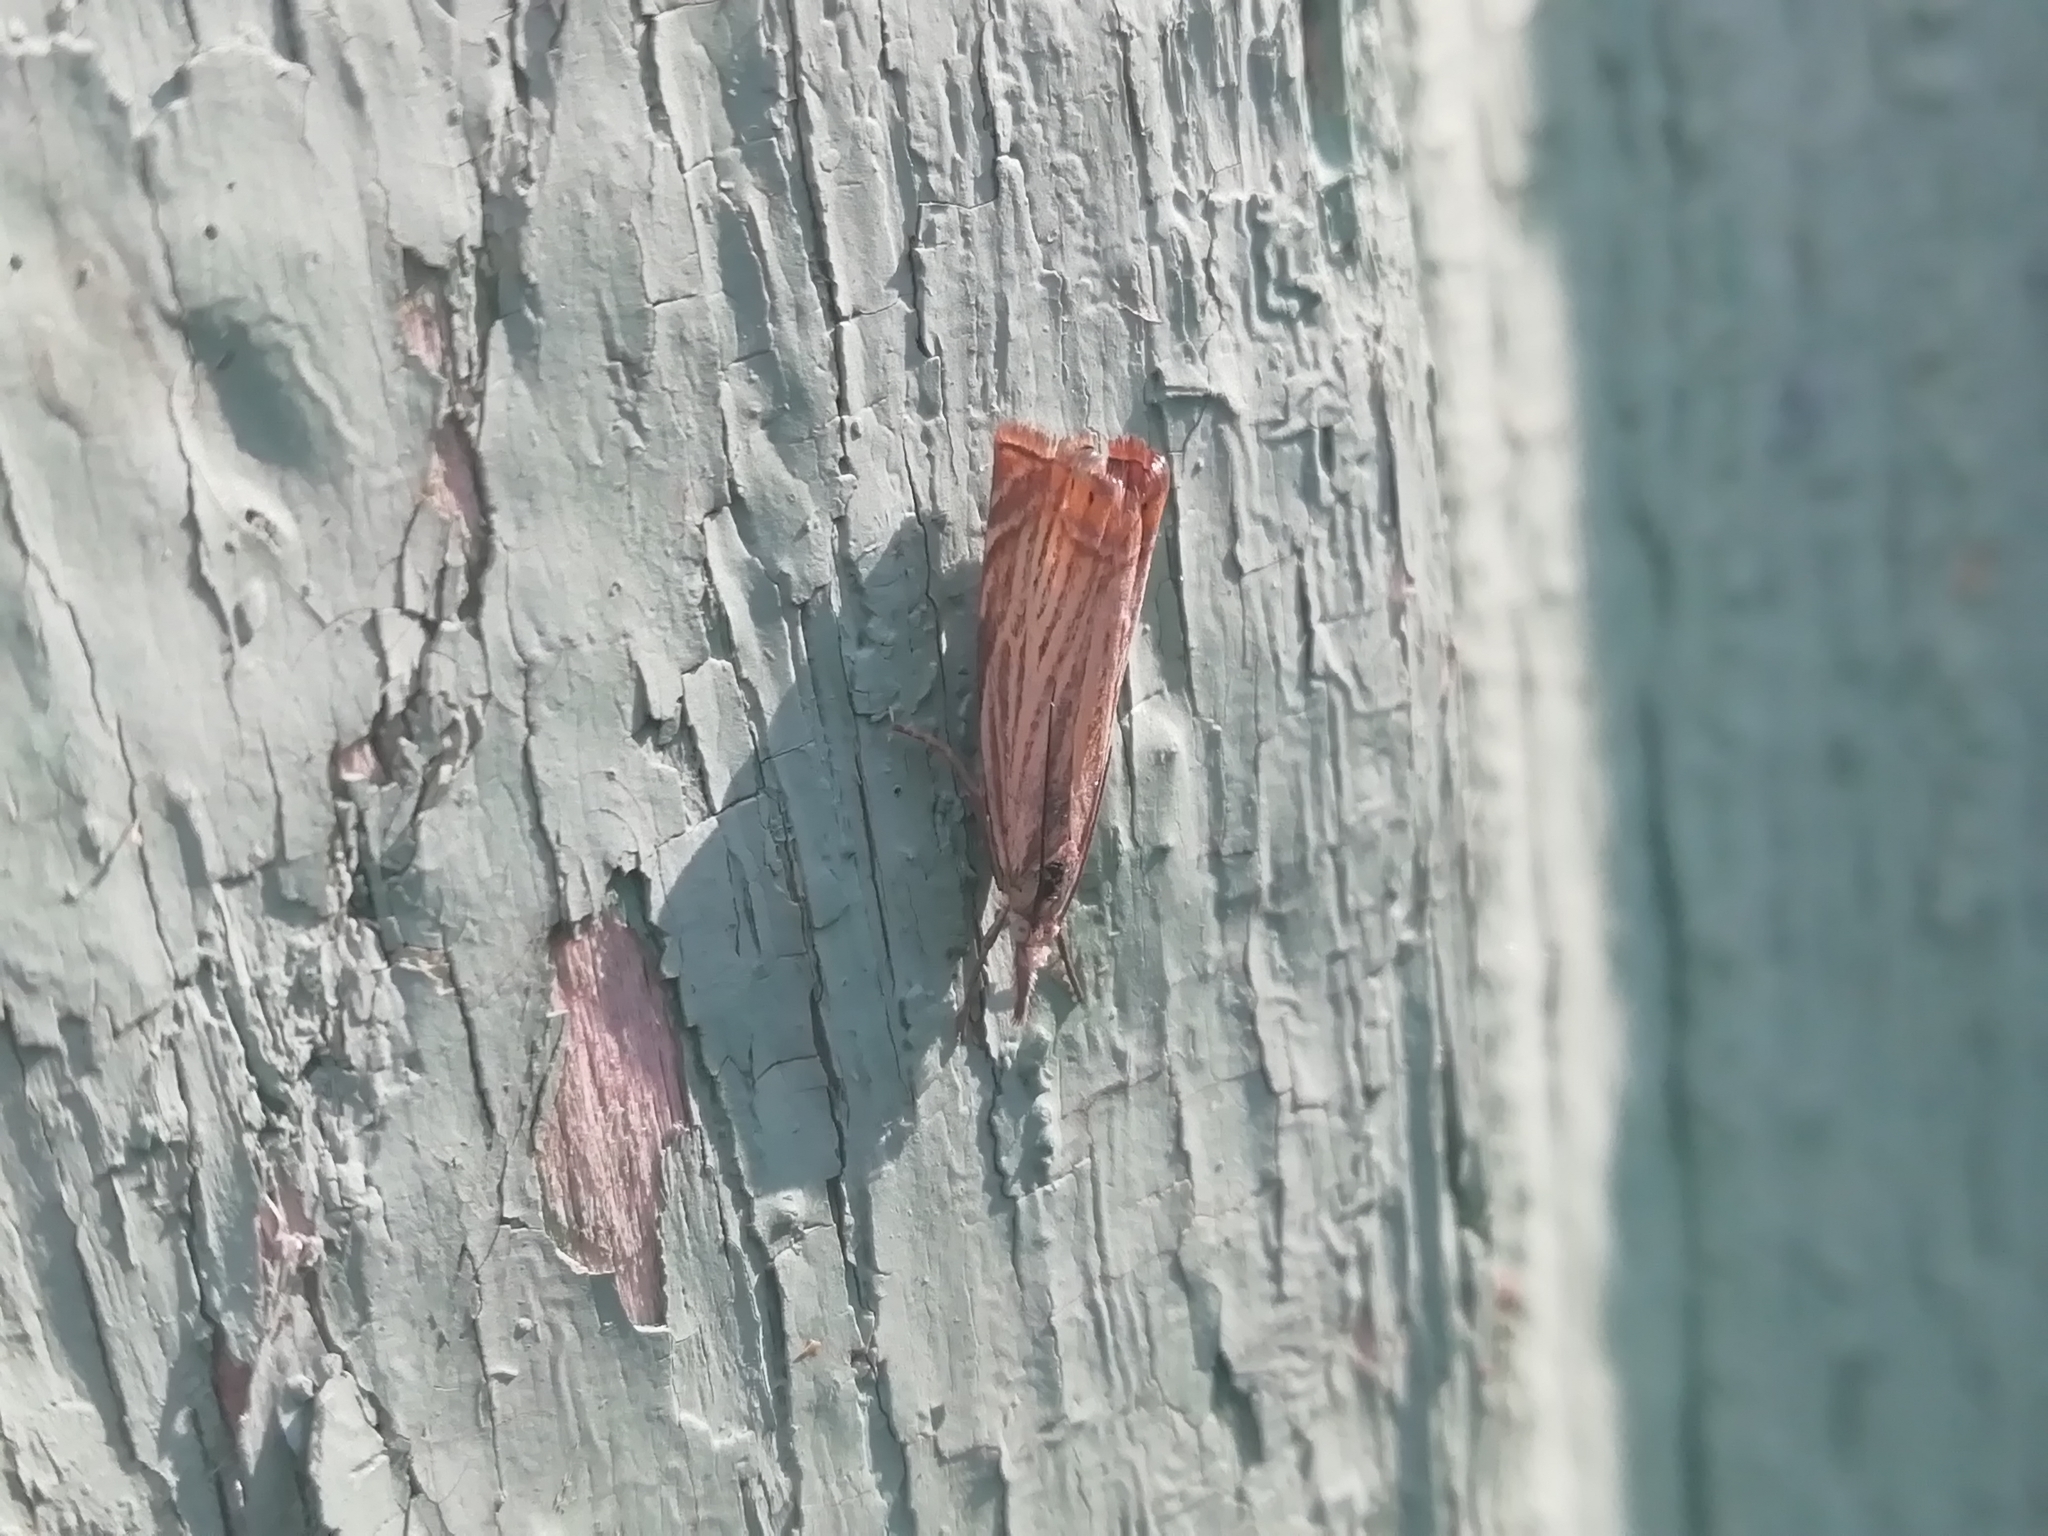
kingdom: Animalia
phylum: Arthropoda
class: Insecta
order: Lepidoptera
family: Crambidae
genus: Chrysoteuchia
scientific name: Chrysoteuchia culmella
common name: Garden grass-veneer
